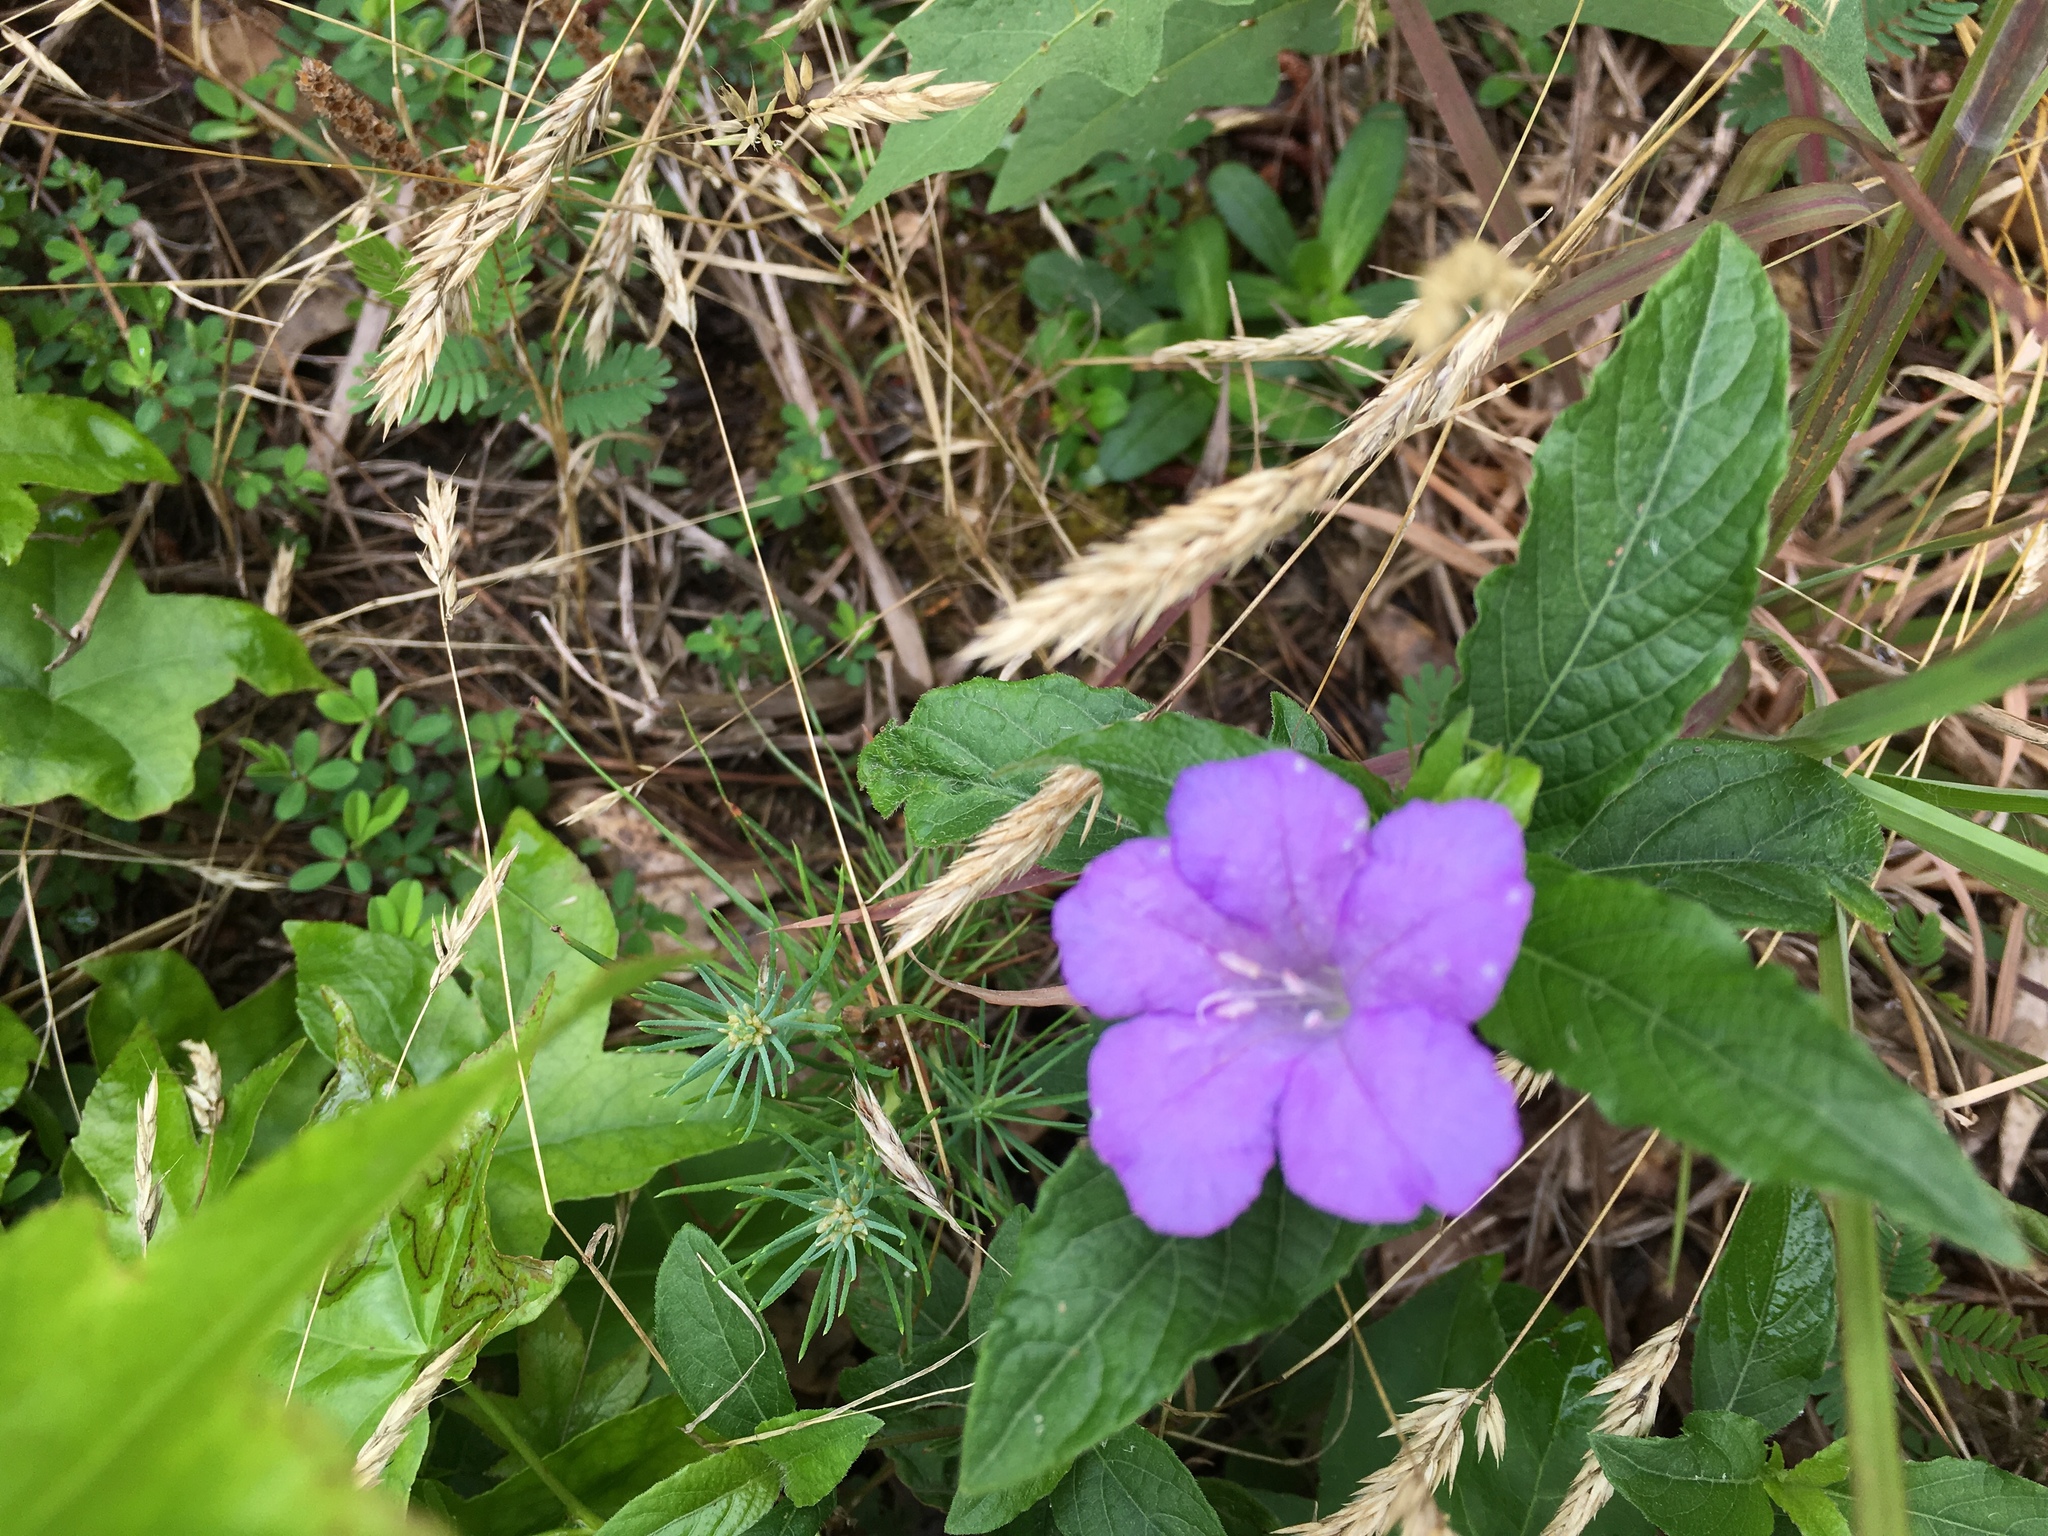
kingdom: Plantae
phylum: Tracheophyta
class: Magnoliopsida
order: Lamiales
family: Acanthaceae
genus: Ruellia
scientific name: Ruellia caroliniensis
